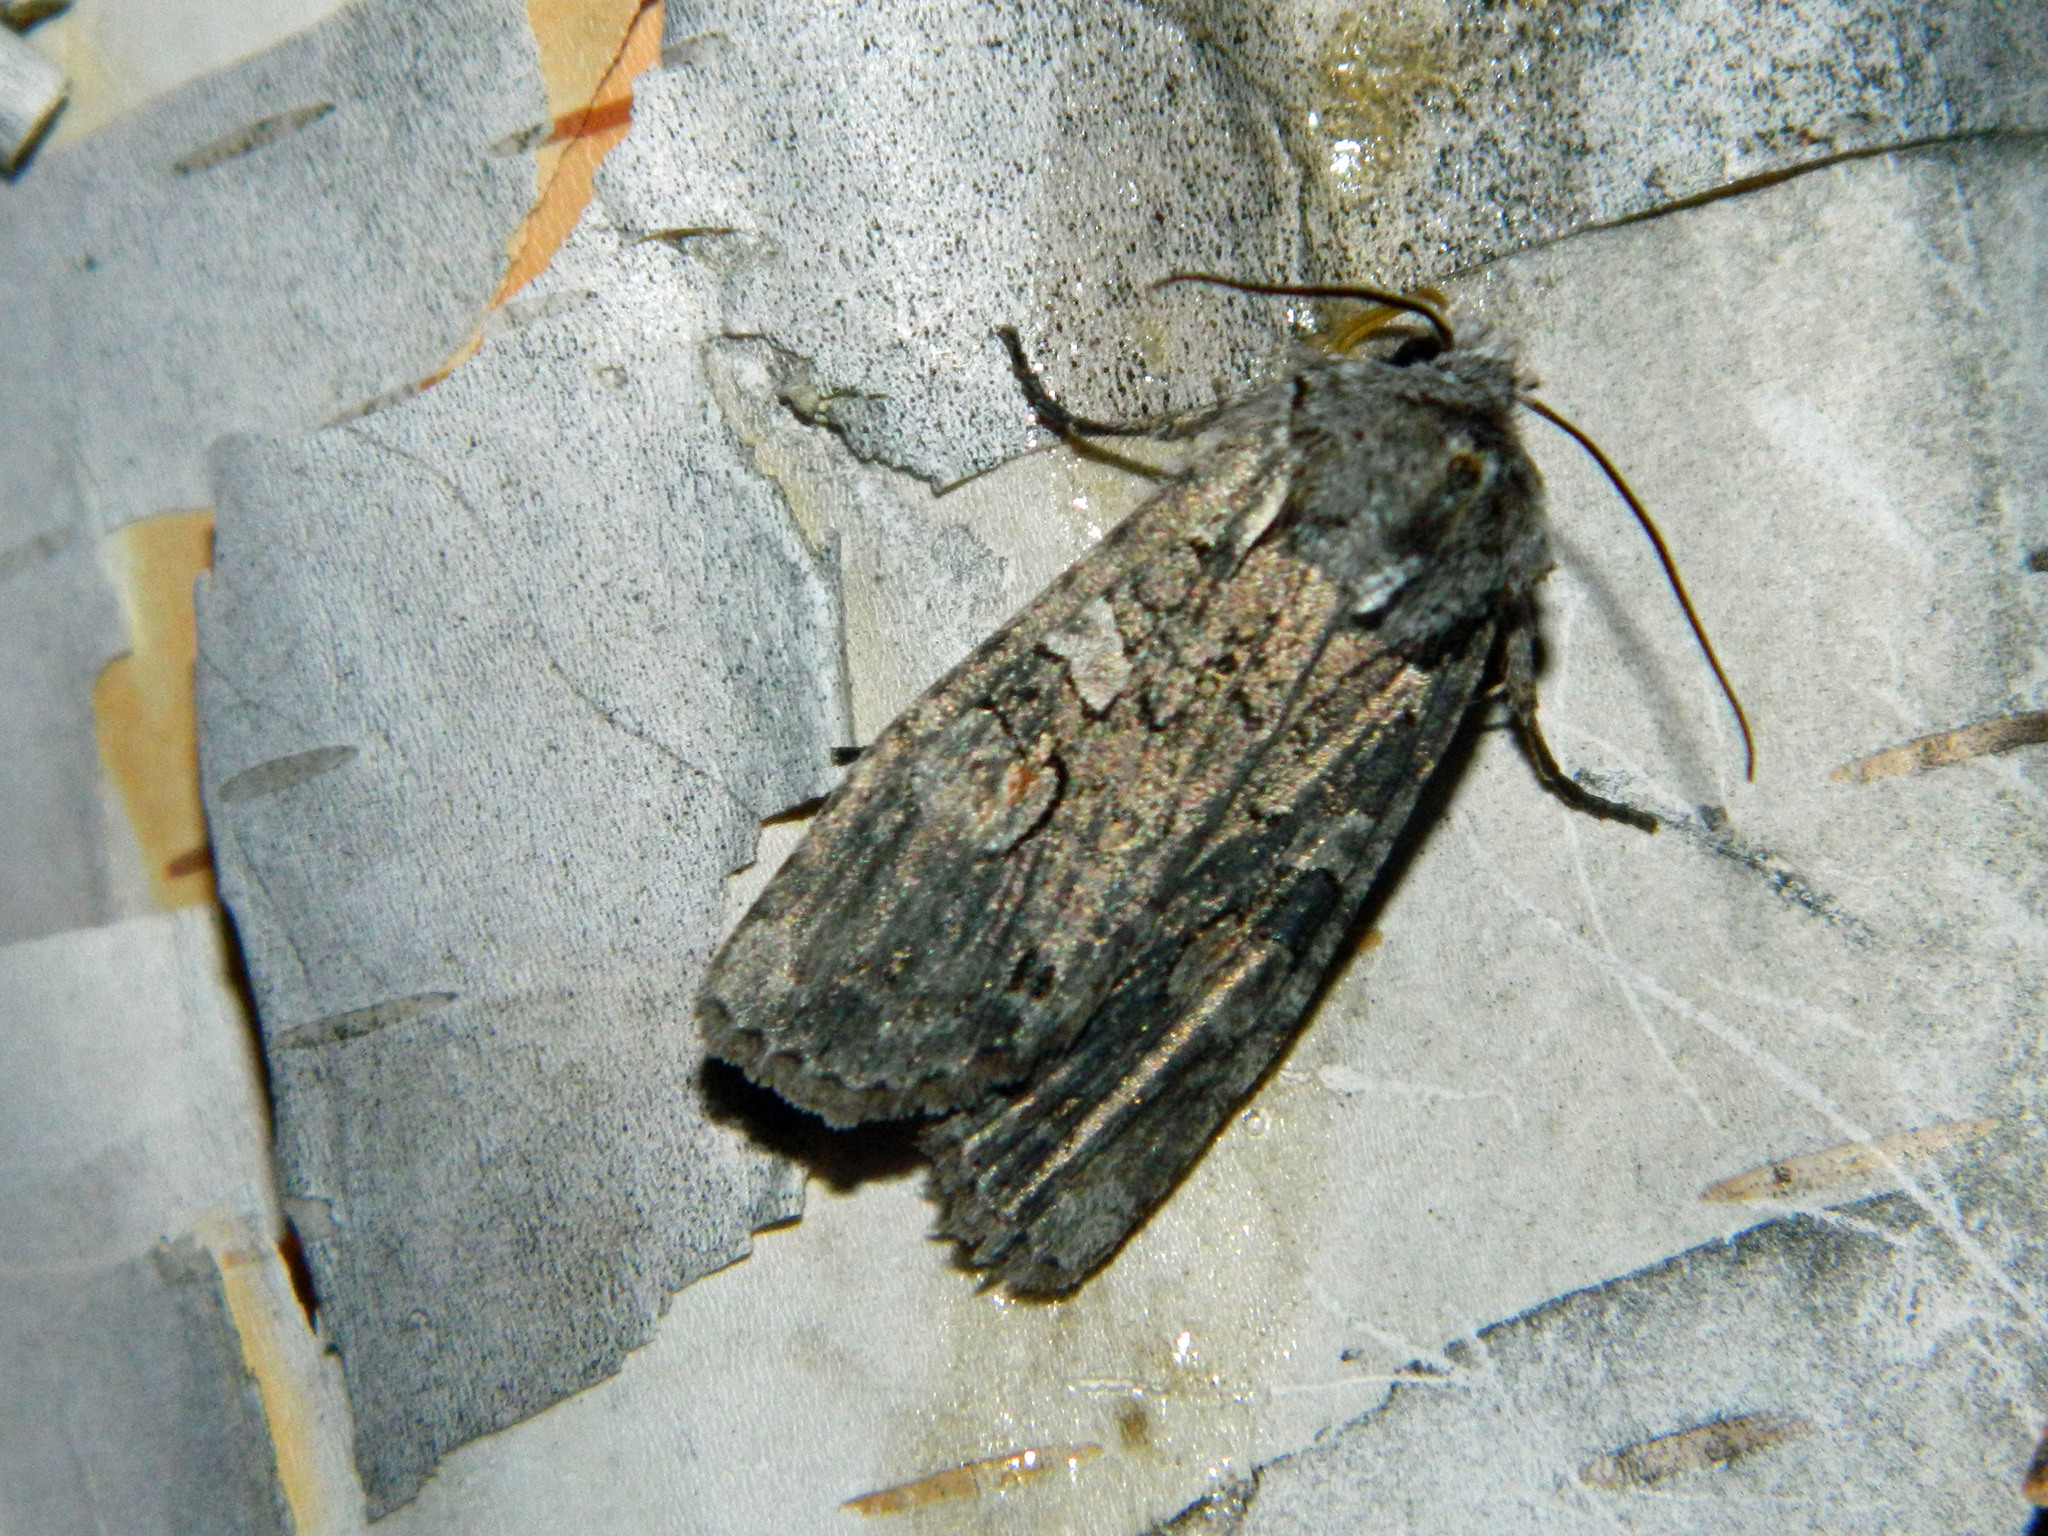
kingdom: Animalia
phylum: Arthropoda
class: Insecta
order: Lepidoptera
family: Noctuidae
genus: Lithophane
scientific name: Lithophane baileyi
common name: Bailey's pinion moth
